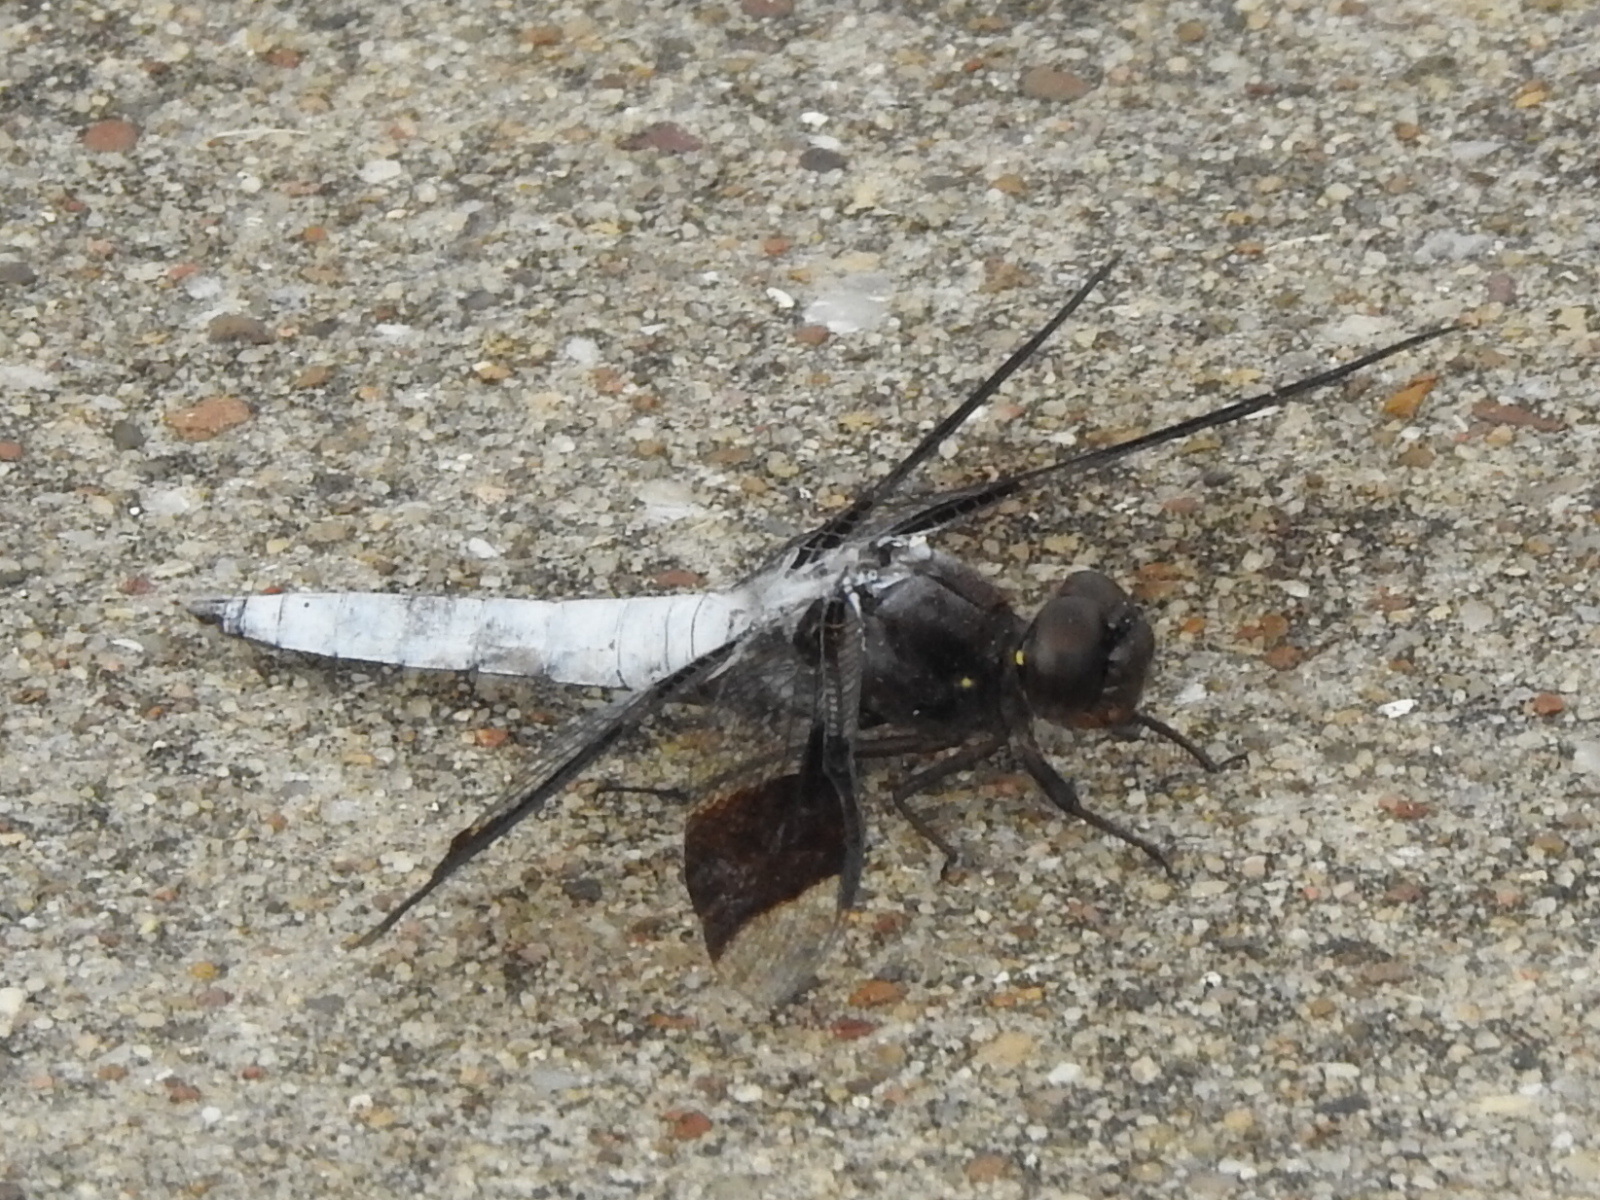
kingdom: Animalia
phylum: Arthropoda
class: Insecta
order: Odonata
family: Libellulidae
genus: Plathemis
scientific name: Plathemis lydia
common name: Common whitetail
